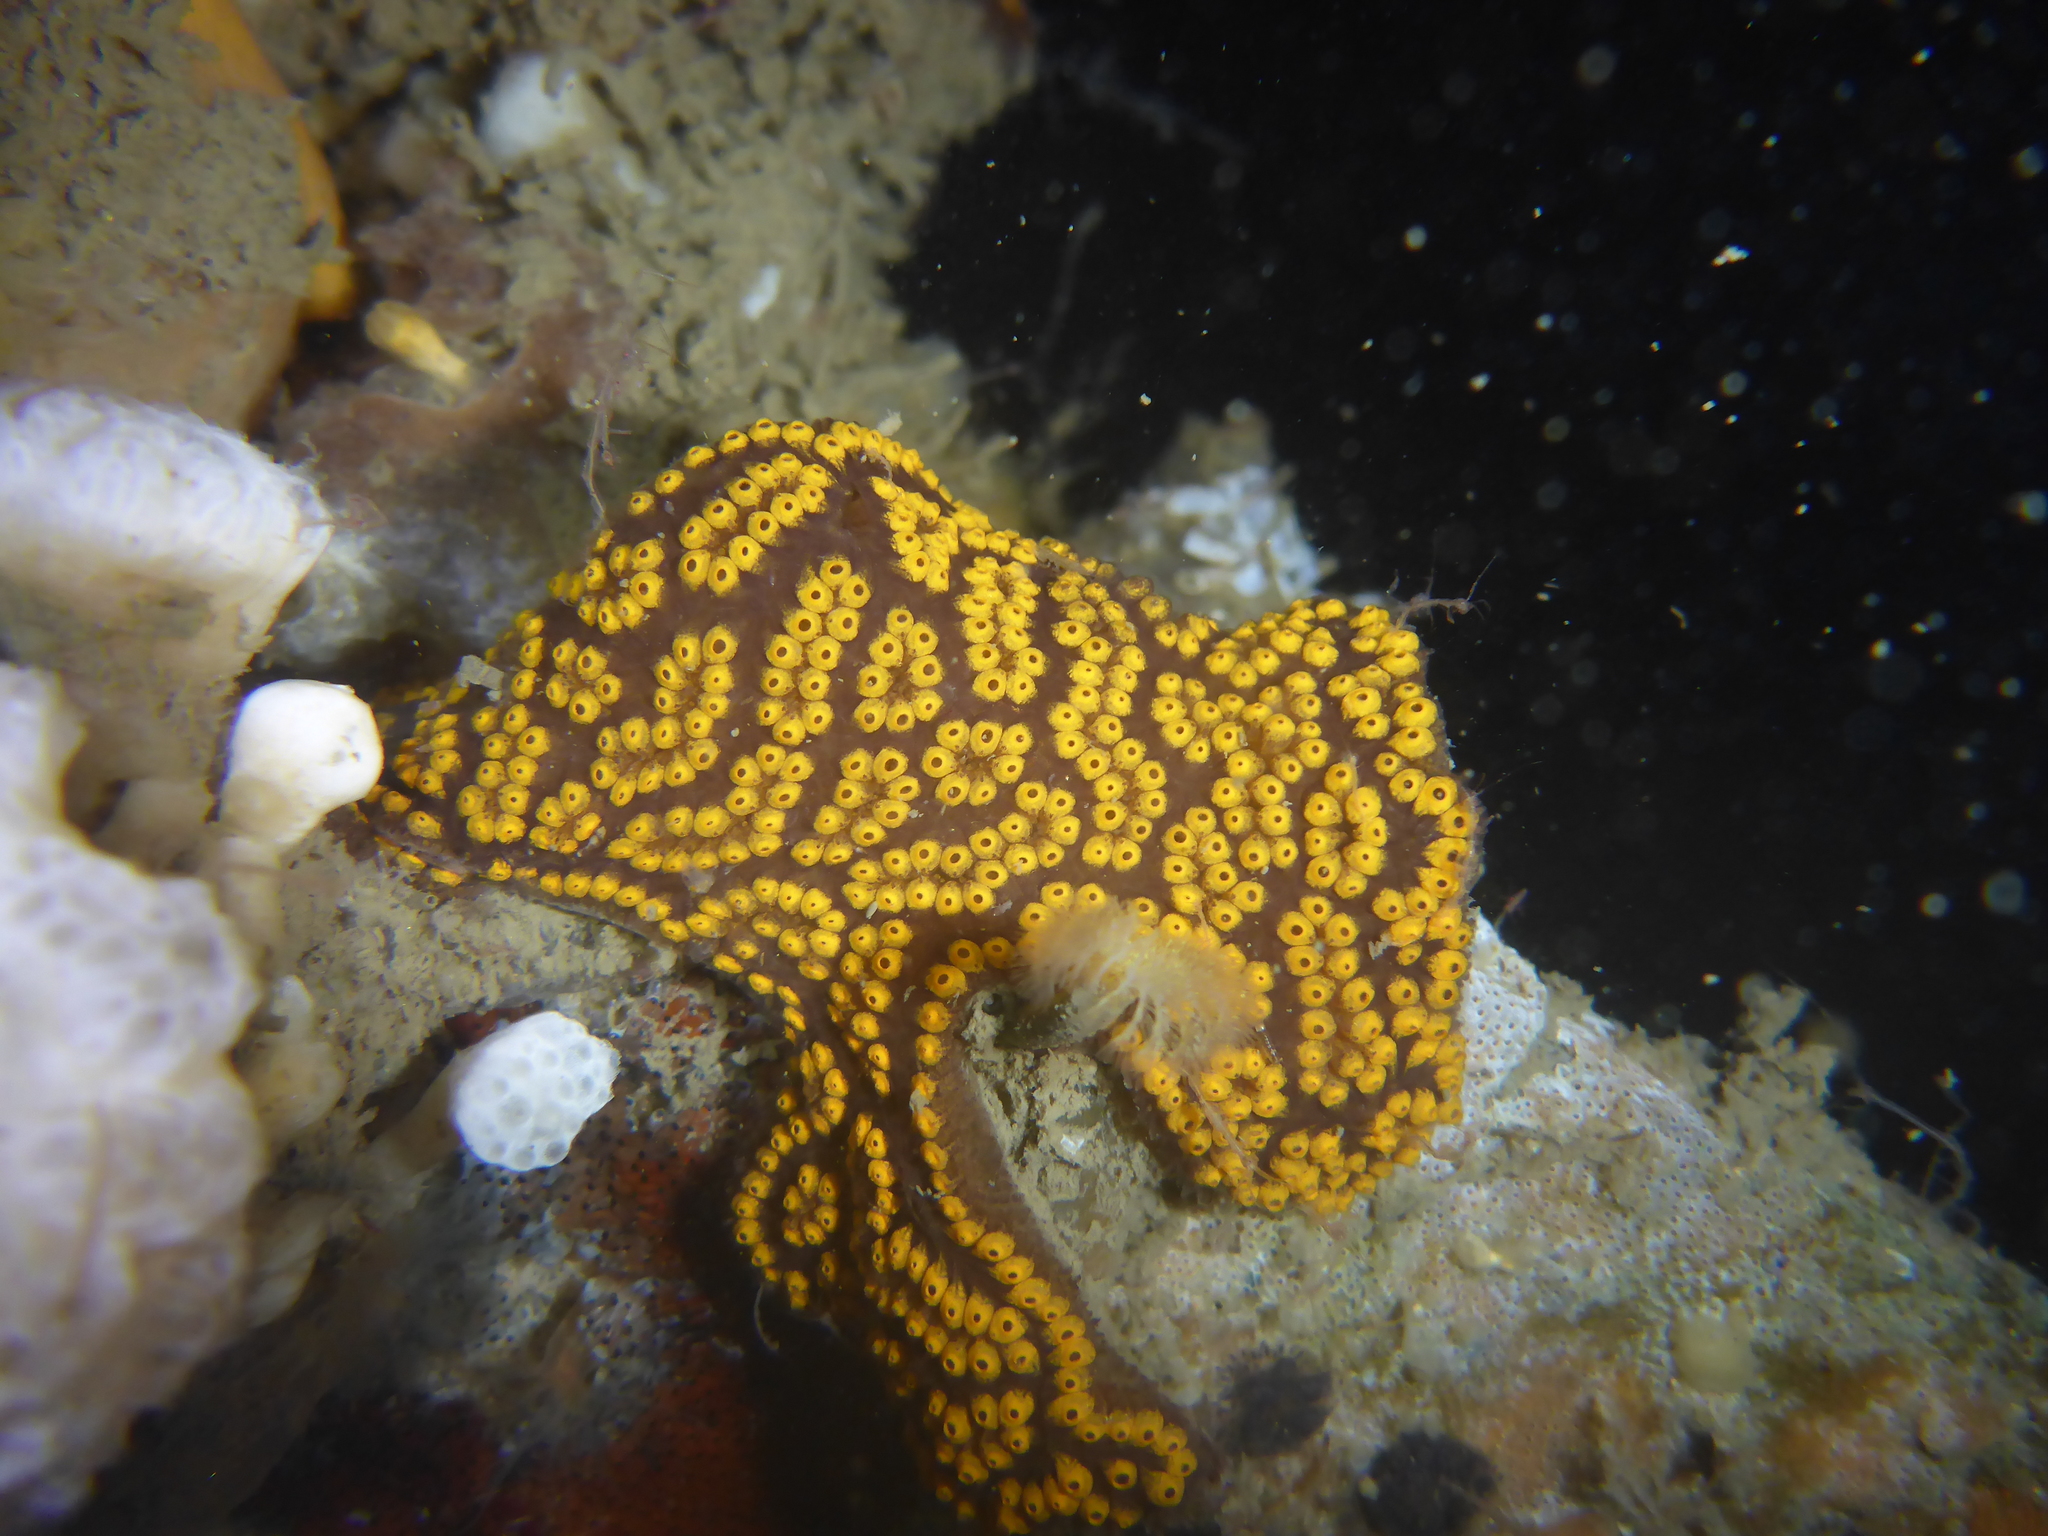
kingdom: Animalia
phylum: Chordata
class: Ascidiacea
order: Stolidobranchia
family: Styelidae
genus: Botrylloides
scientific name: Botrylloides diegensis
